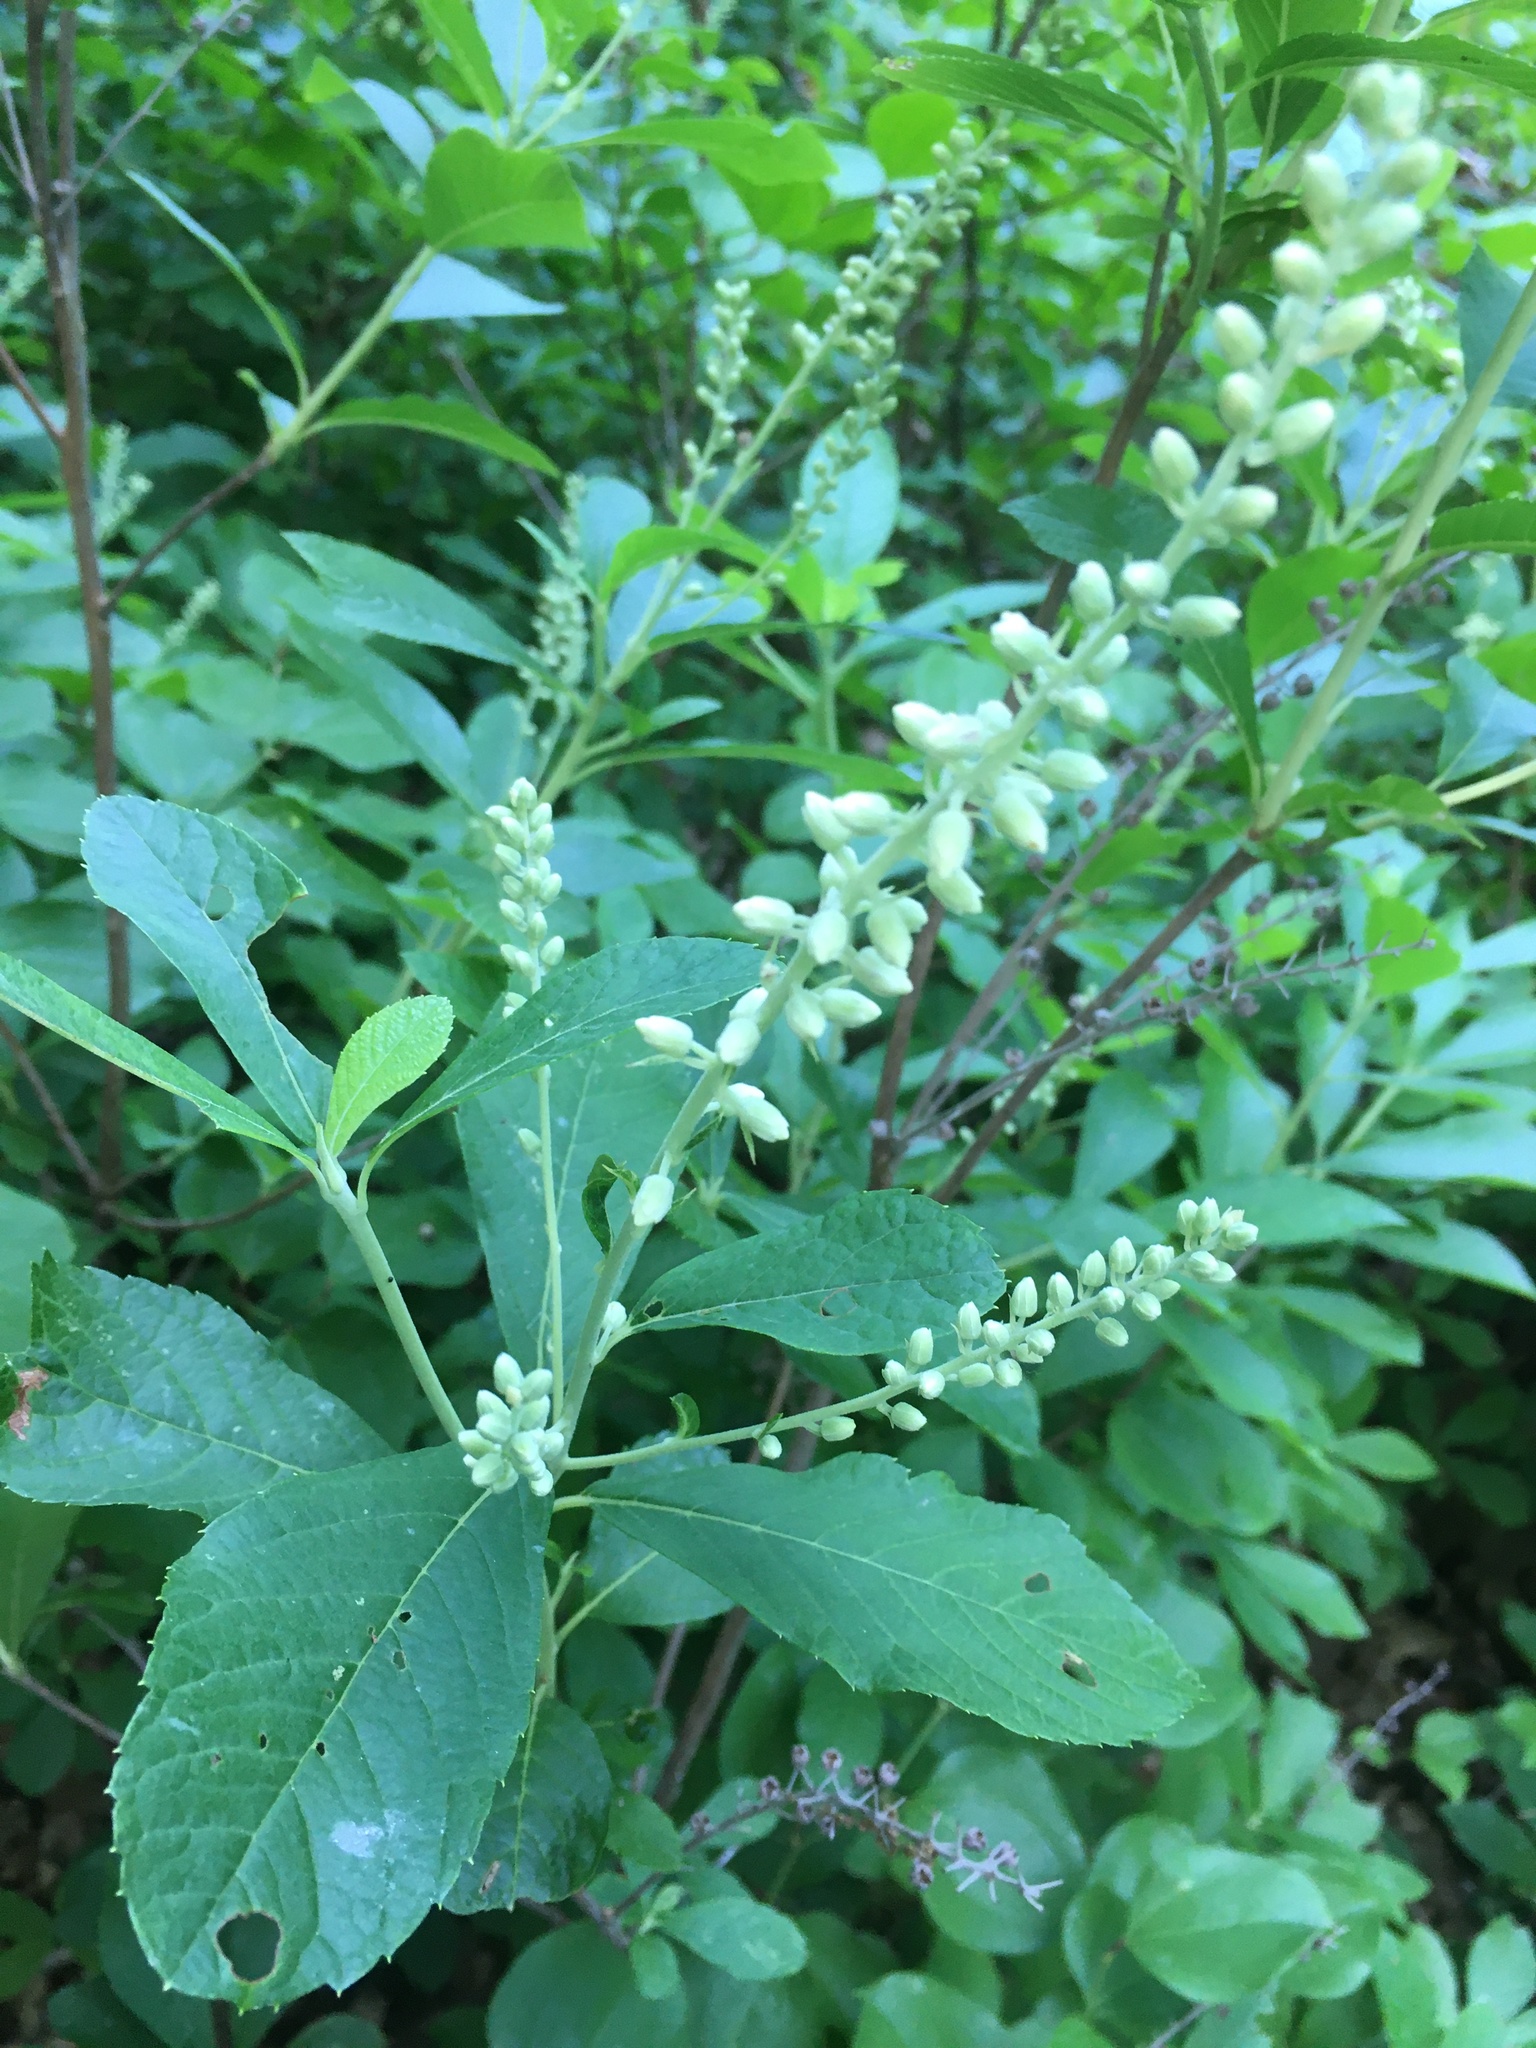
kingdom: Plantae
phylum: Tracheophyta
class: Magnoliopsida
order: Ericales
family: Clethraceae
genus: Clethra
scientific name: Clethra alnifolia
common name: Sweet pepperbush
